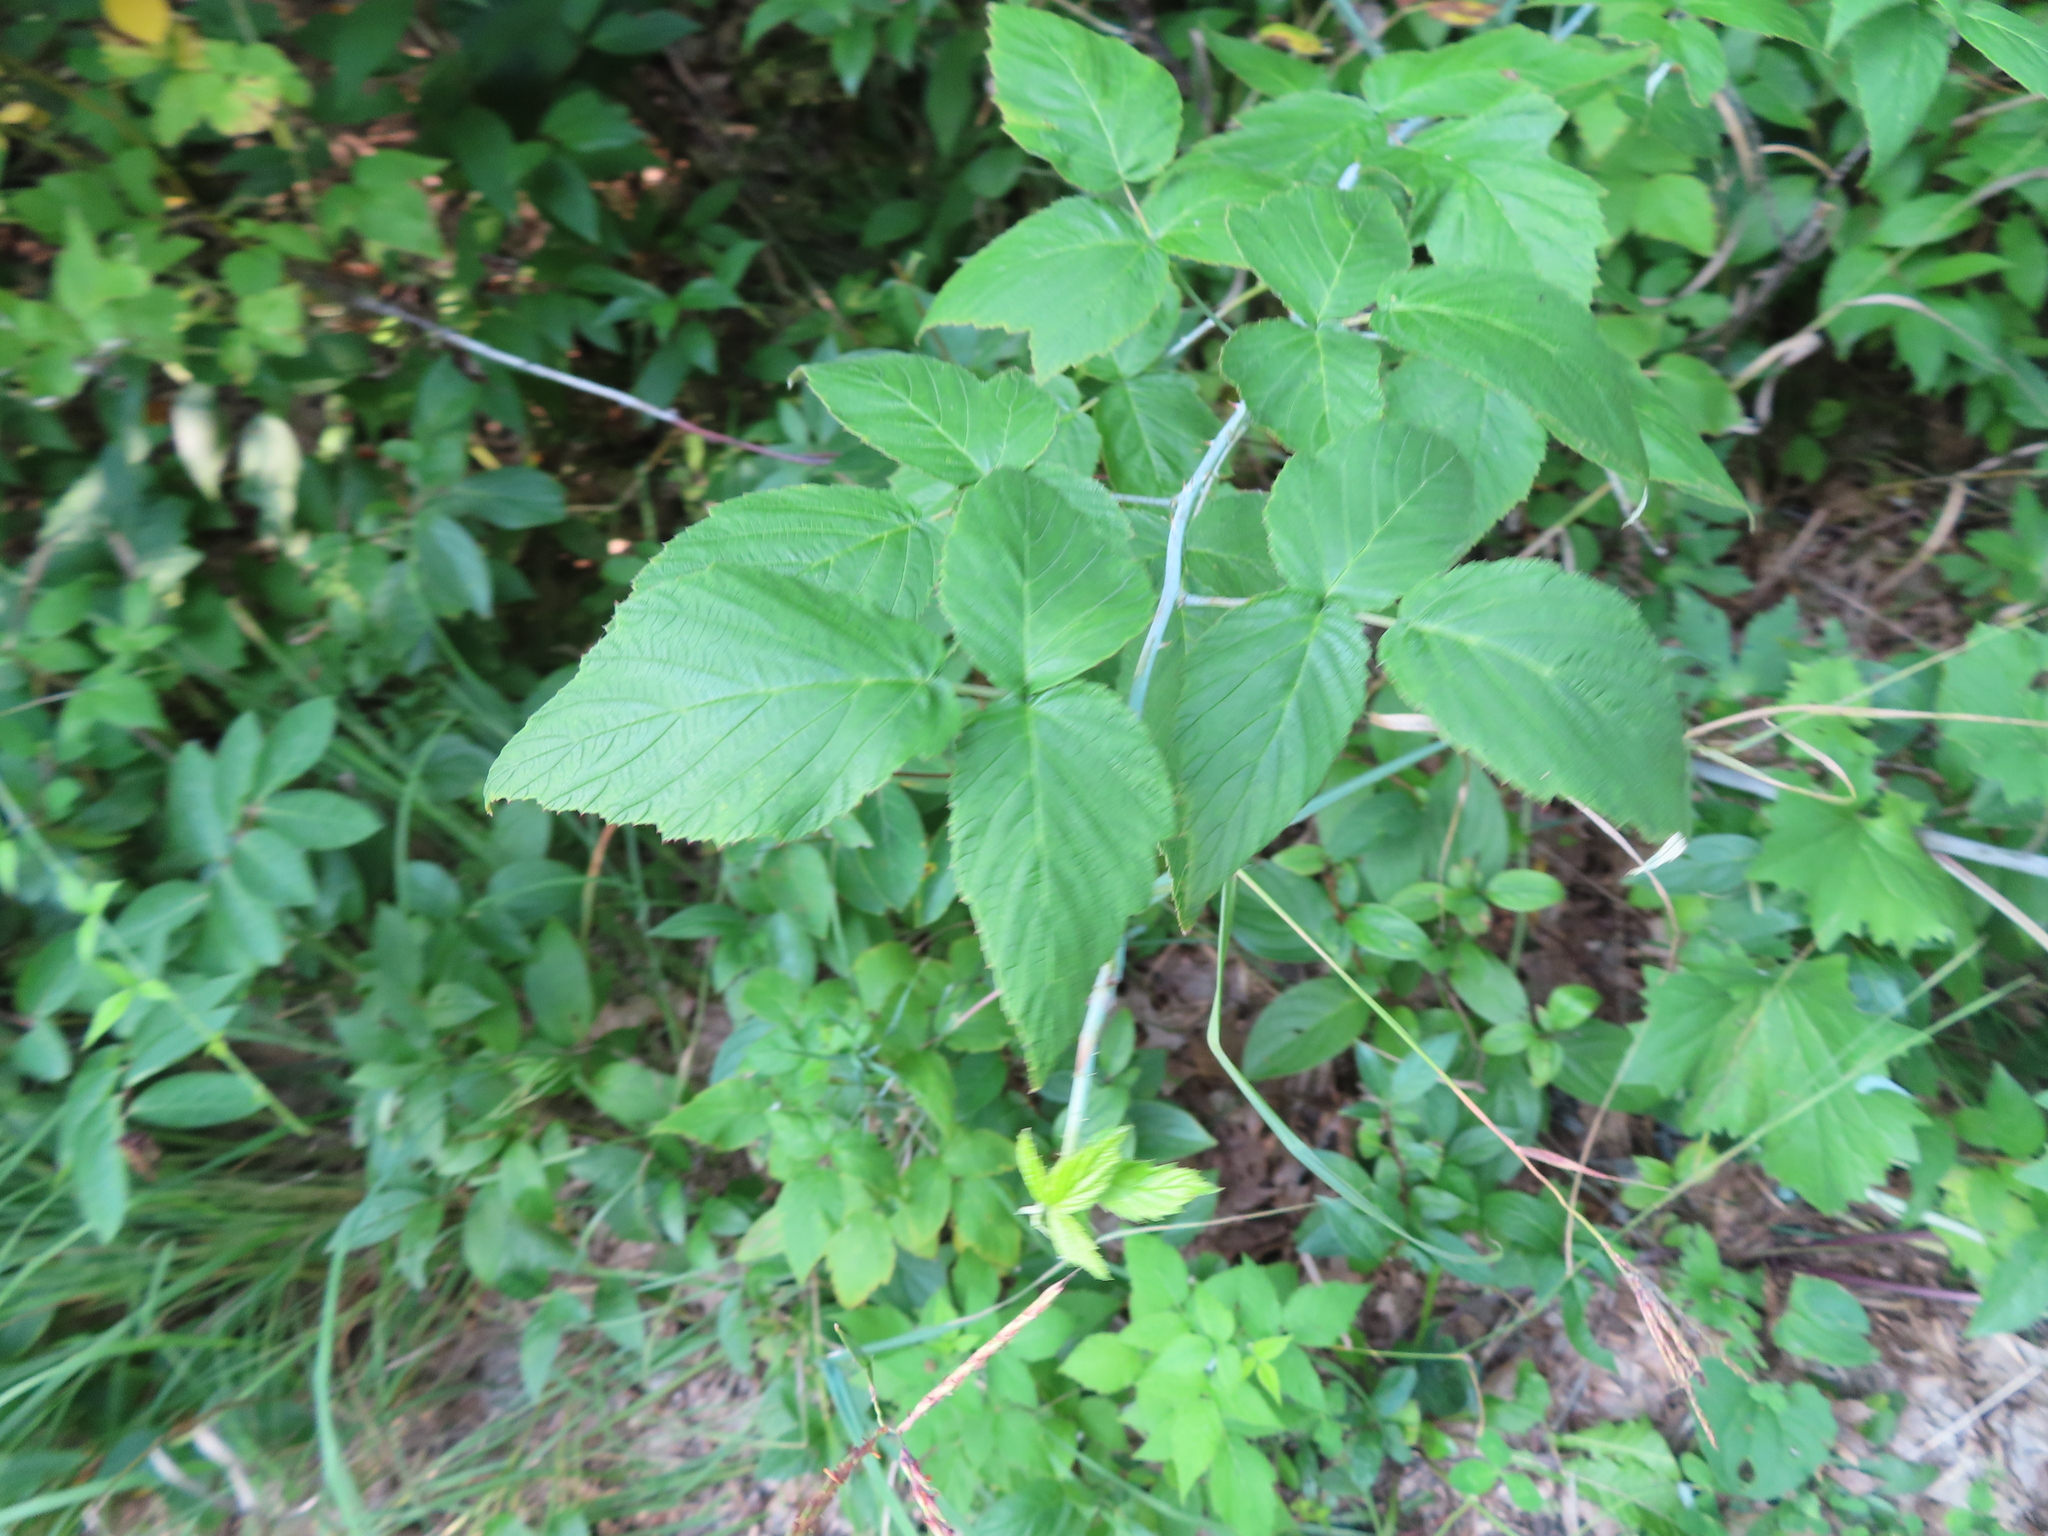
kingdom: Plantae
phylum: Tracheophyta
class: Magnoliopsida
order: Rosales
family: Rosaceae
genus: Rubus
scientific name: Rubus occidentalis
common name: Black raspberry
